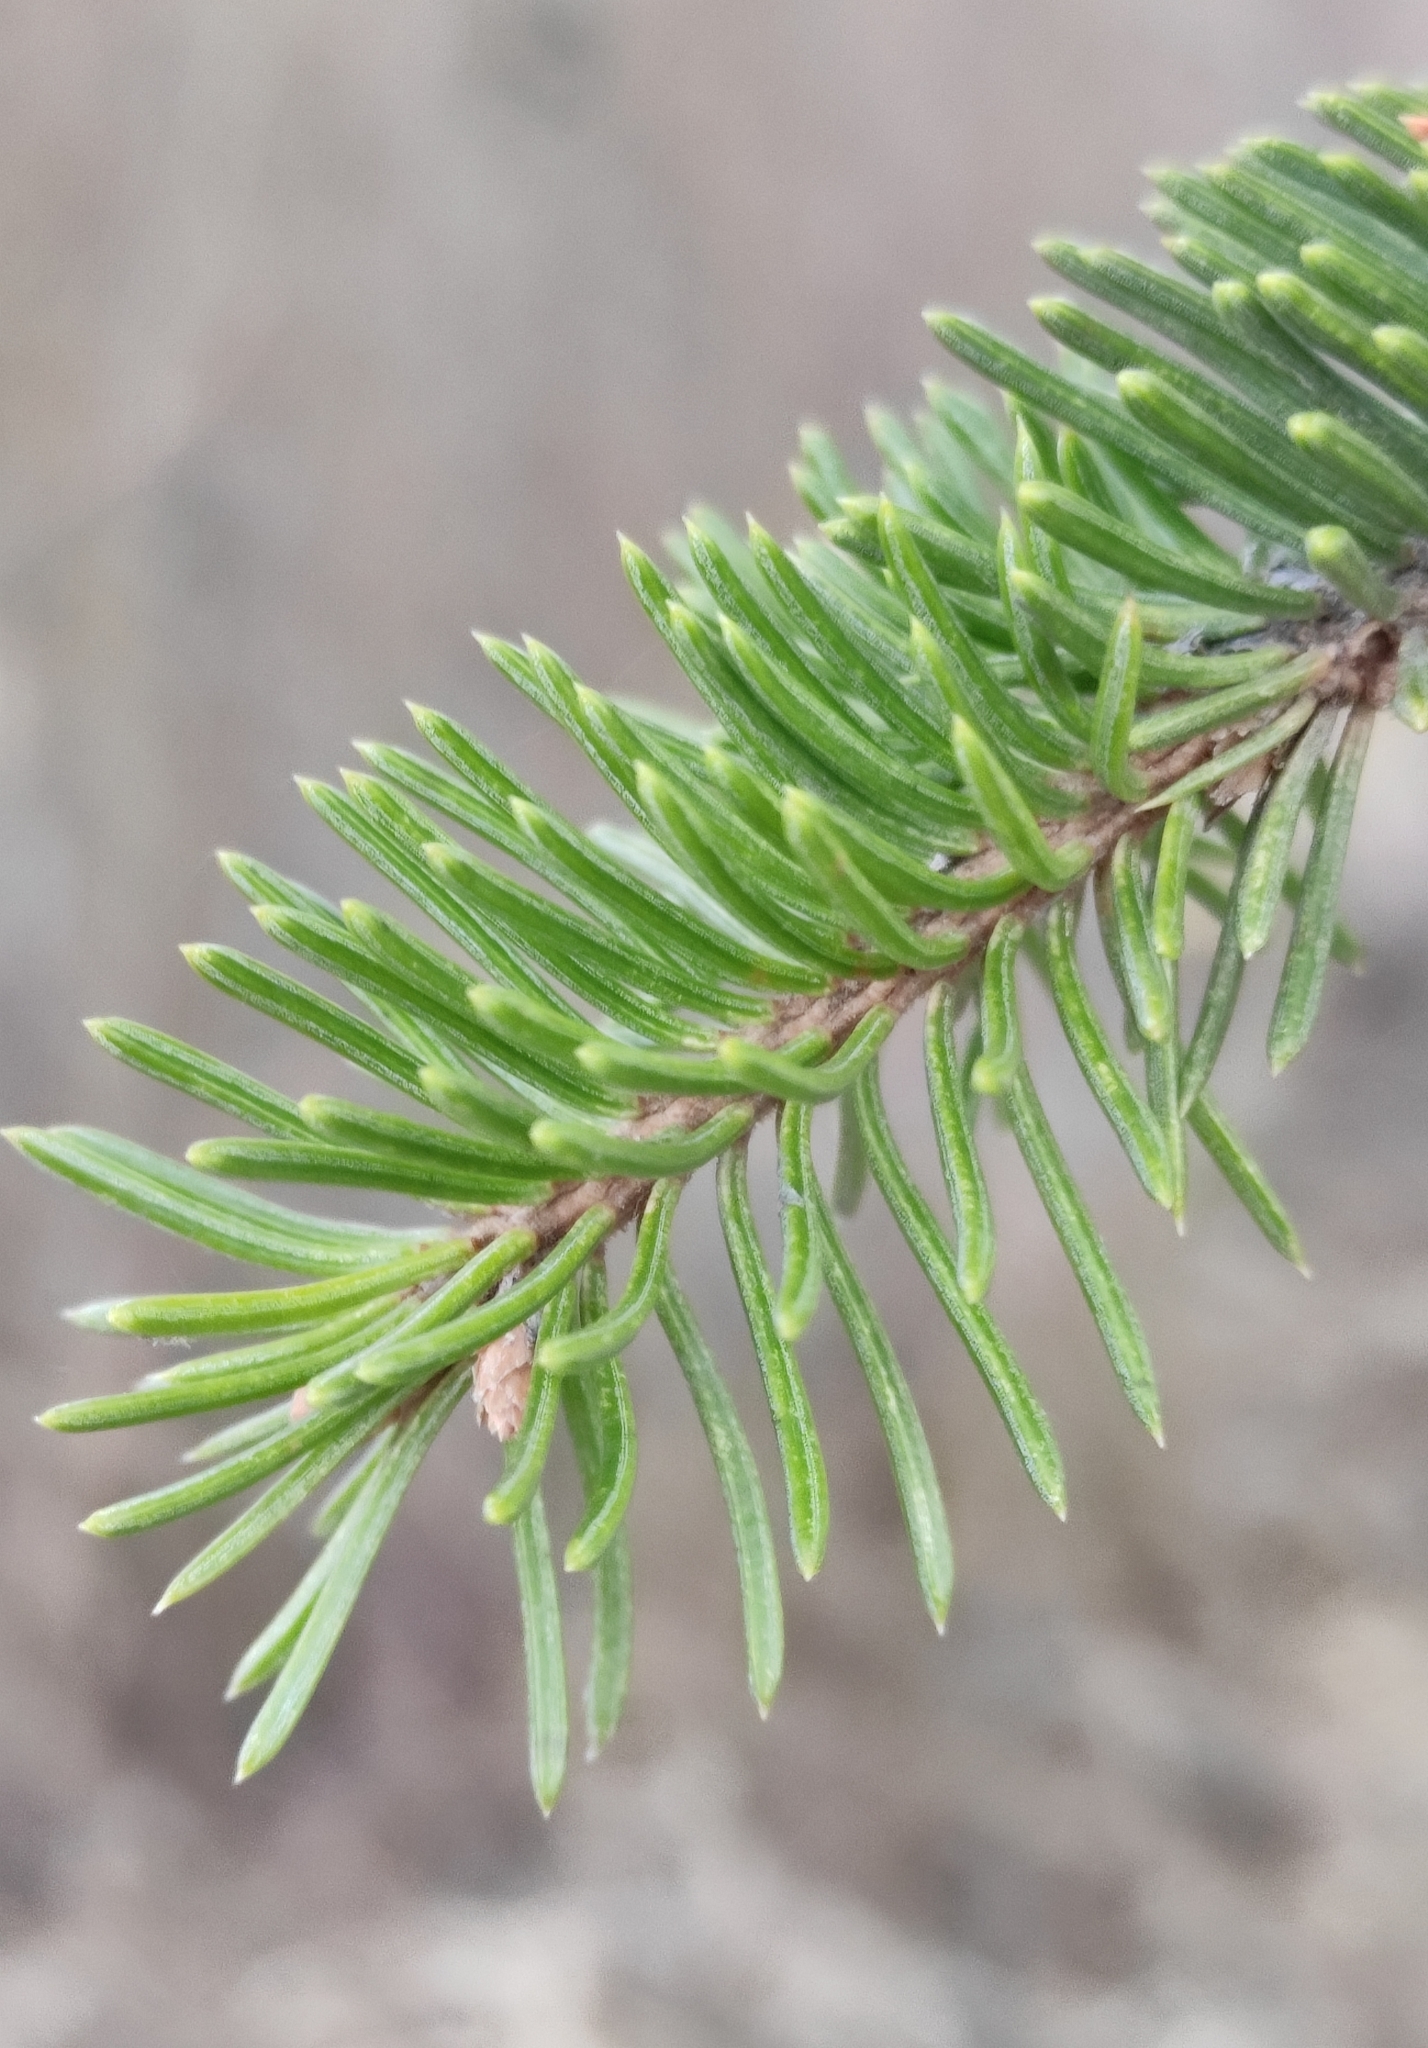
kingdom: Plantae
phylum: Tracheophyta
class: Pinopsida
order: Pinales
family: Pinaceae
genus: Picea
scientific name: Picea obovata
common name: Siberian spruce
